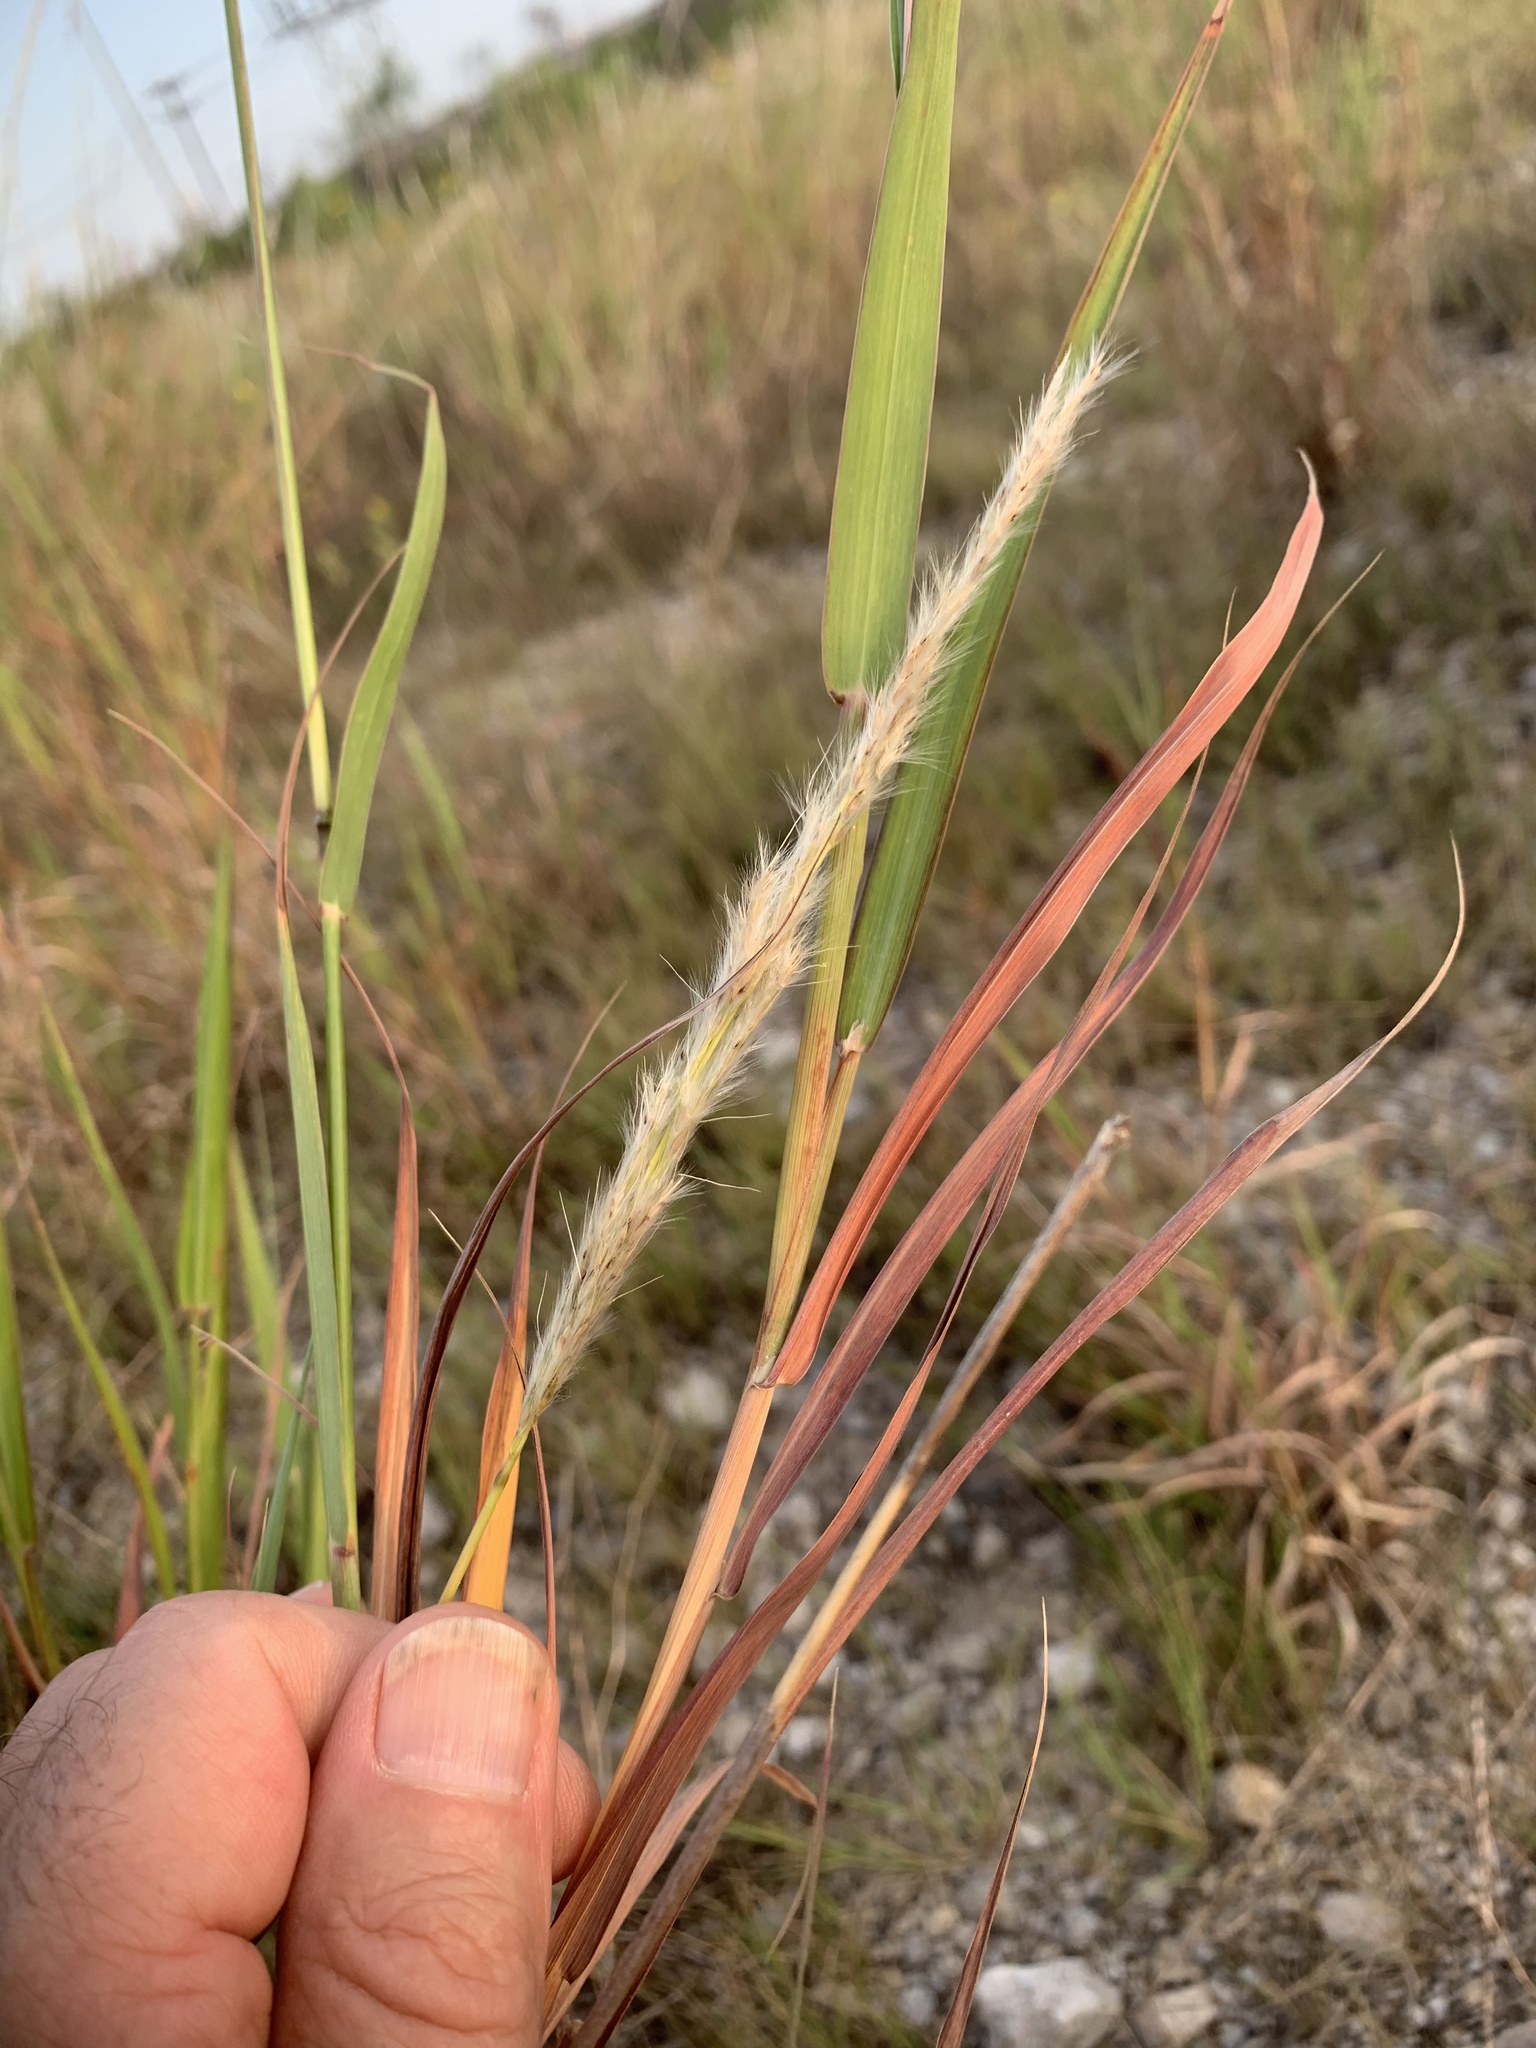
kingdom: Plantae
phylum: Tracheophyta
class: Liliopsida
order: Poales
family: Poaceae
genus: Bothriochloa
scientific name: Bothriochloa torreyana
